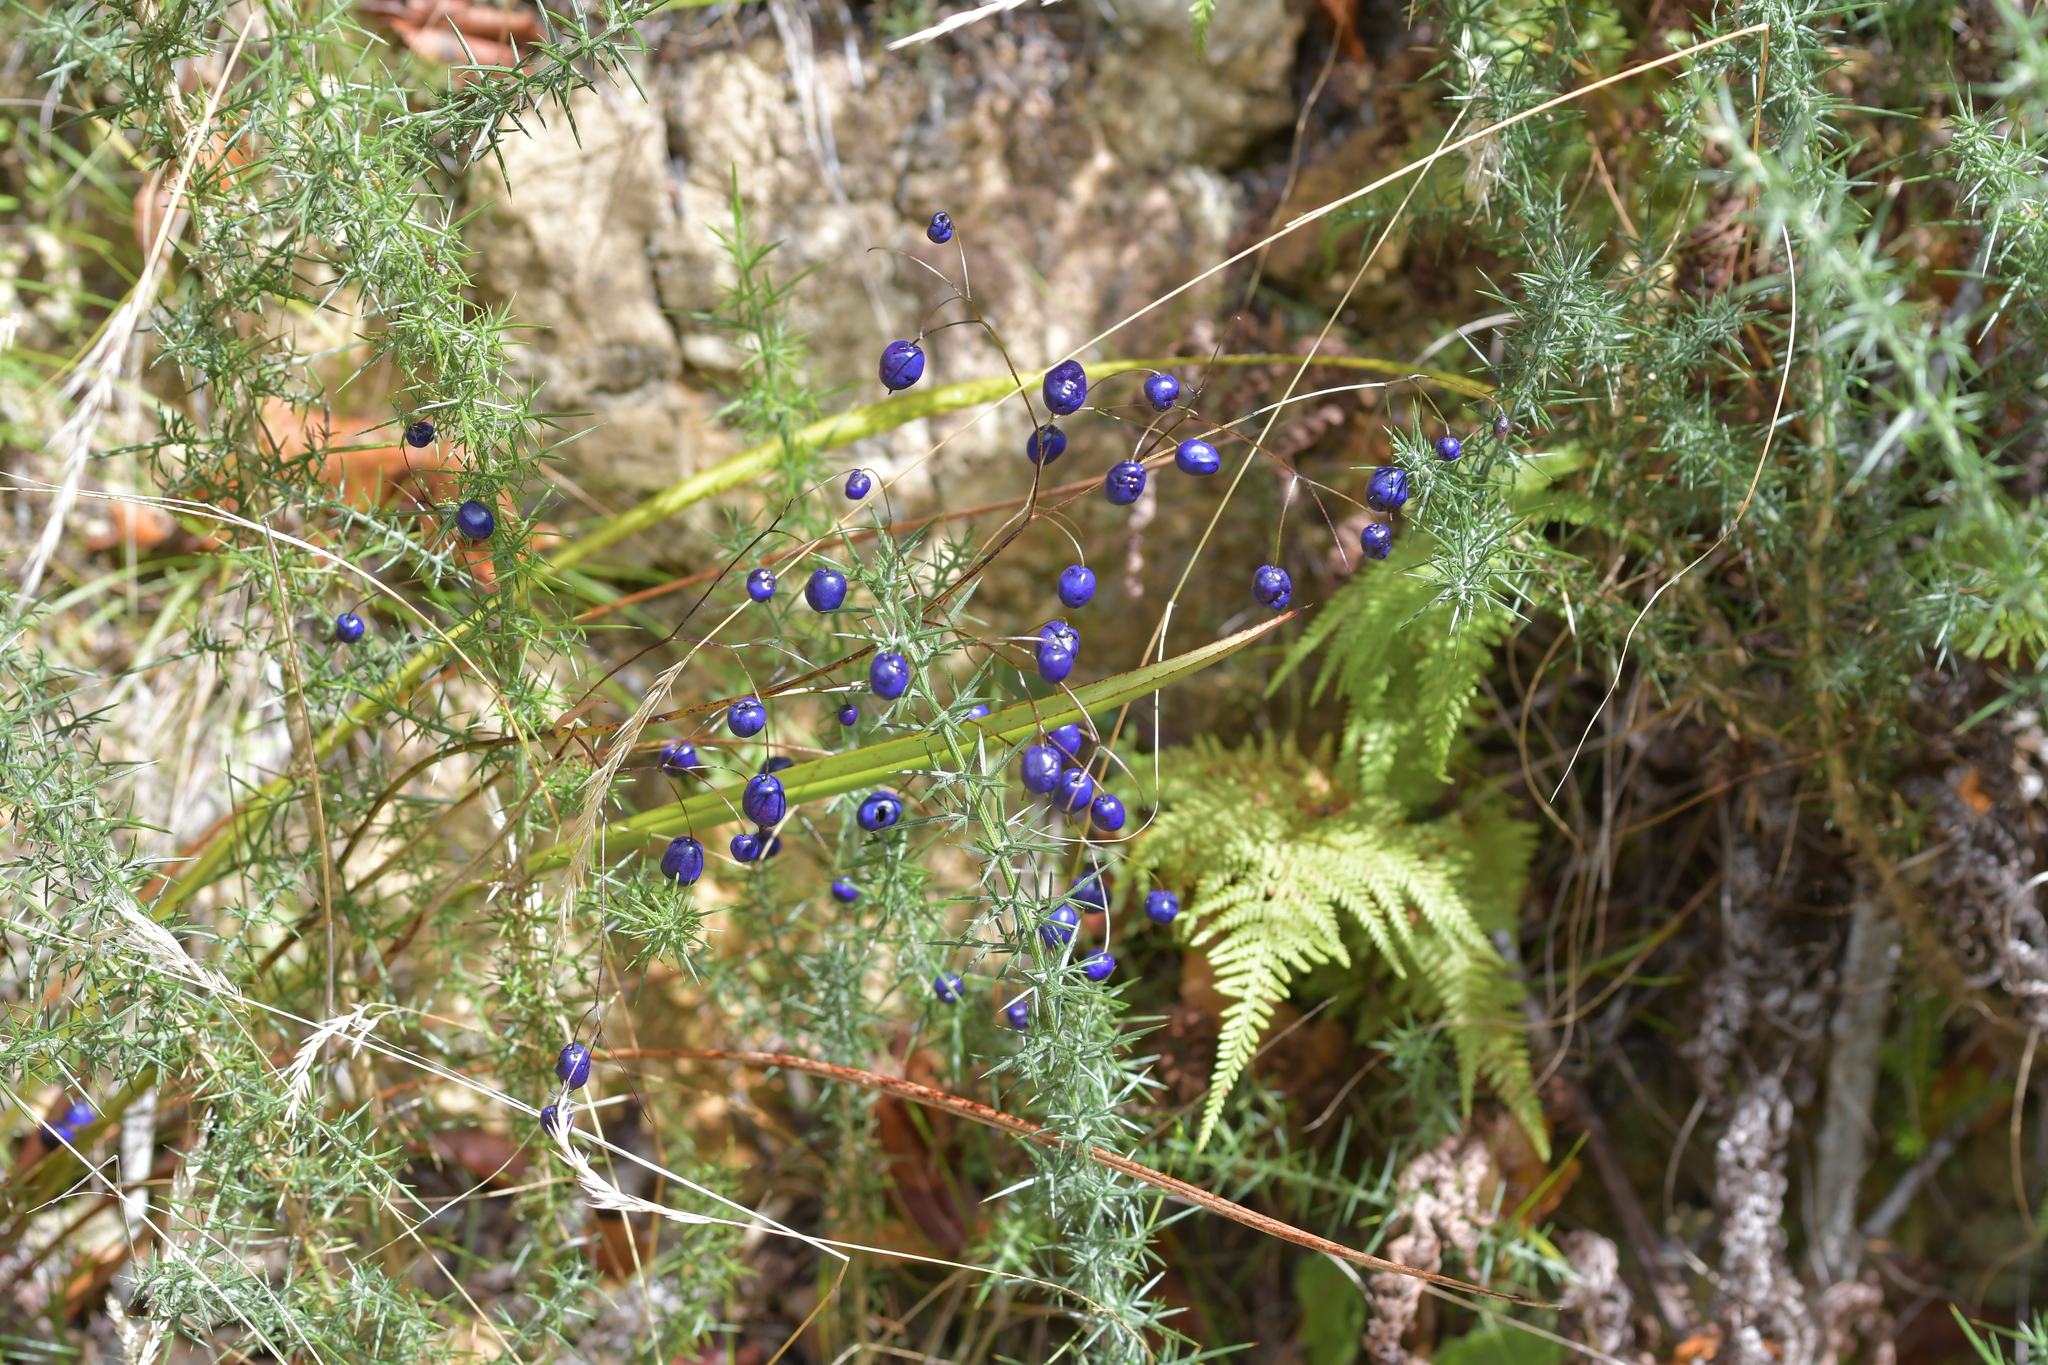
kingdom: Plantae
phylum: Tracheophyta
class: Liliopsida
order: Asparagales
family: Asphodelaceae
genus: Dianella
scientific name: Dianella nigra
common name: New zealand-blueberry
